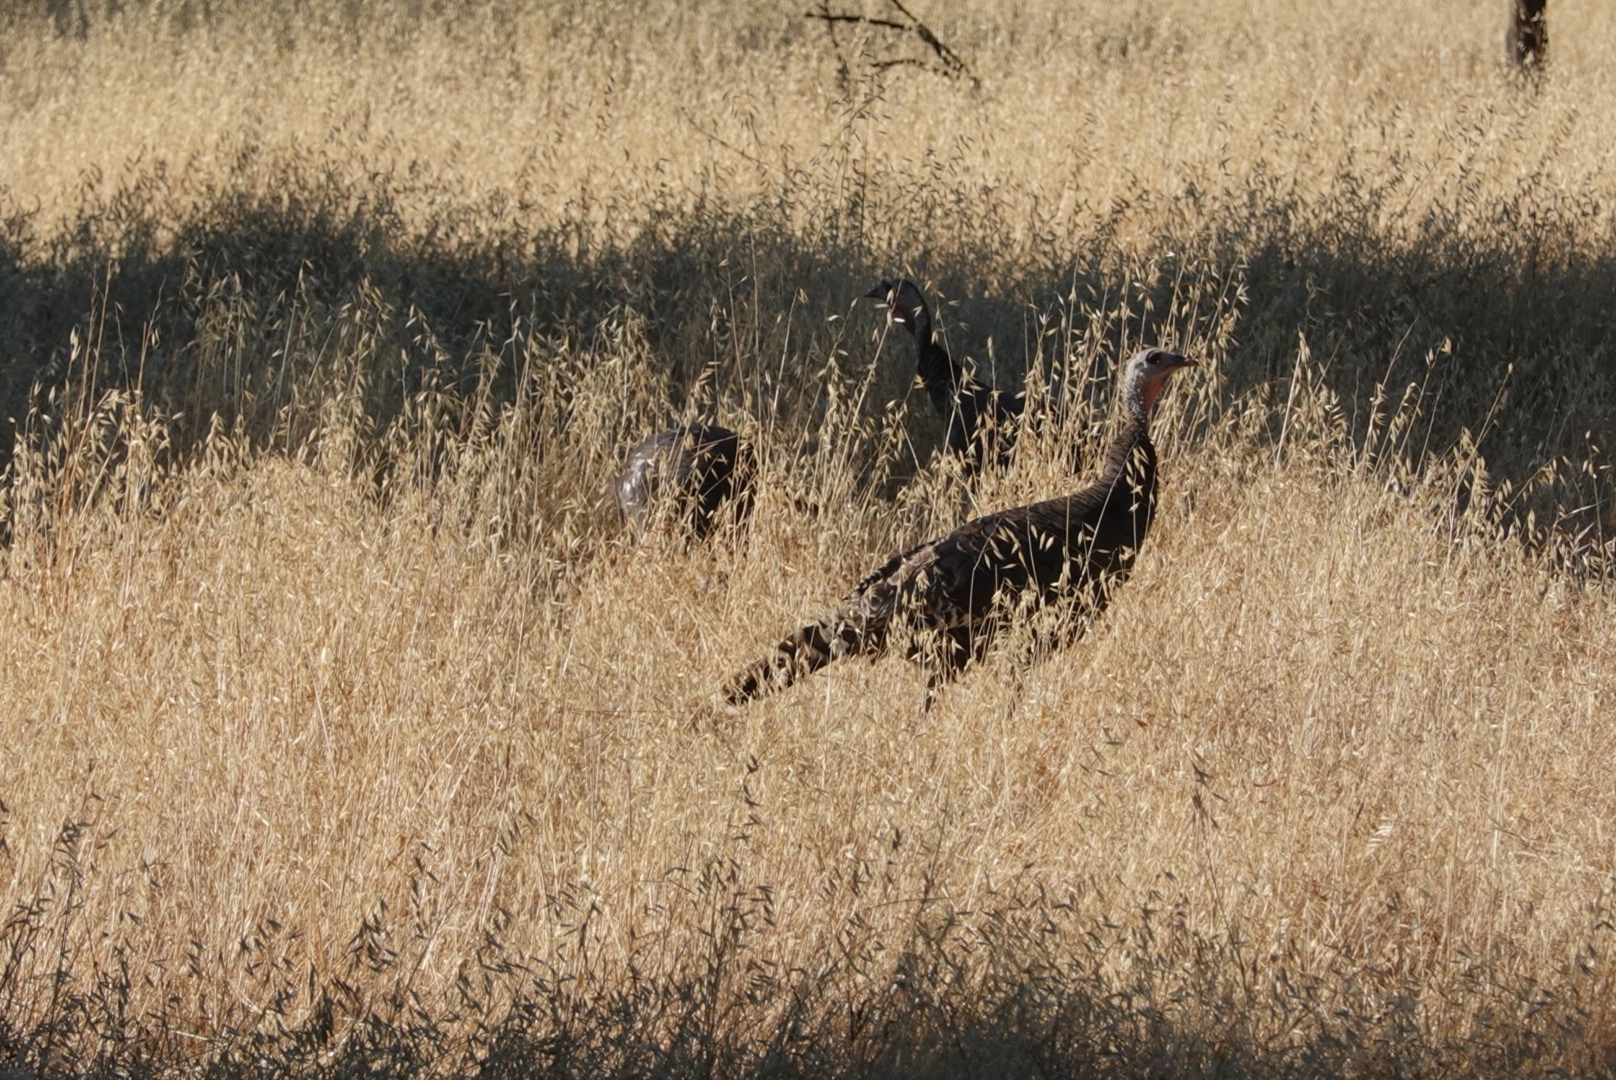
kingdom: Animalia
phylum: Chordata
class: Aves
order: Galliformes
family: Phasianidae
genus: Meleagris
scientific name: Meleagris gallopavo
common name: Wild turkey
